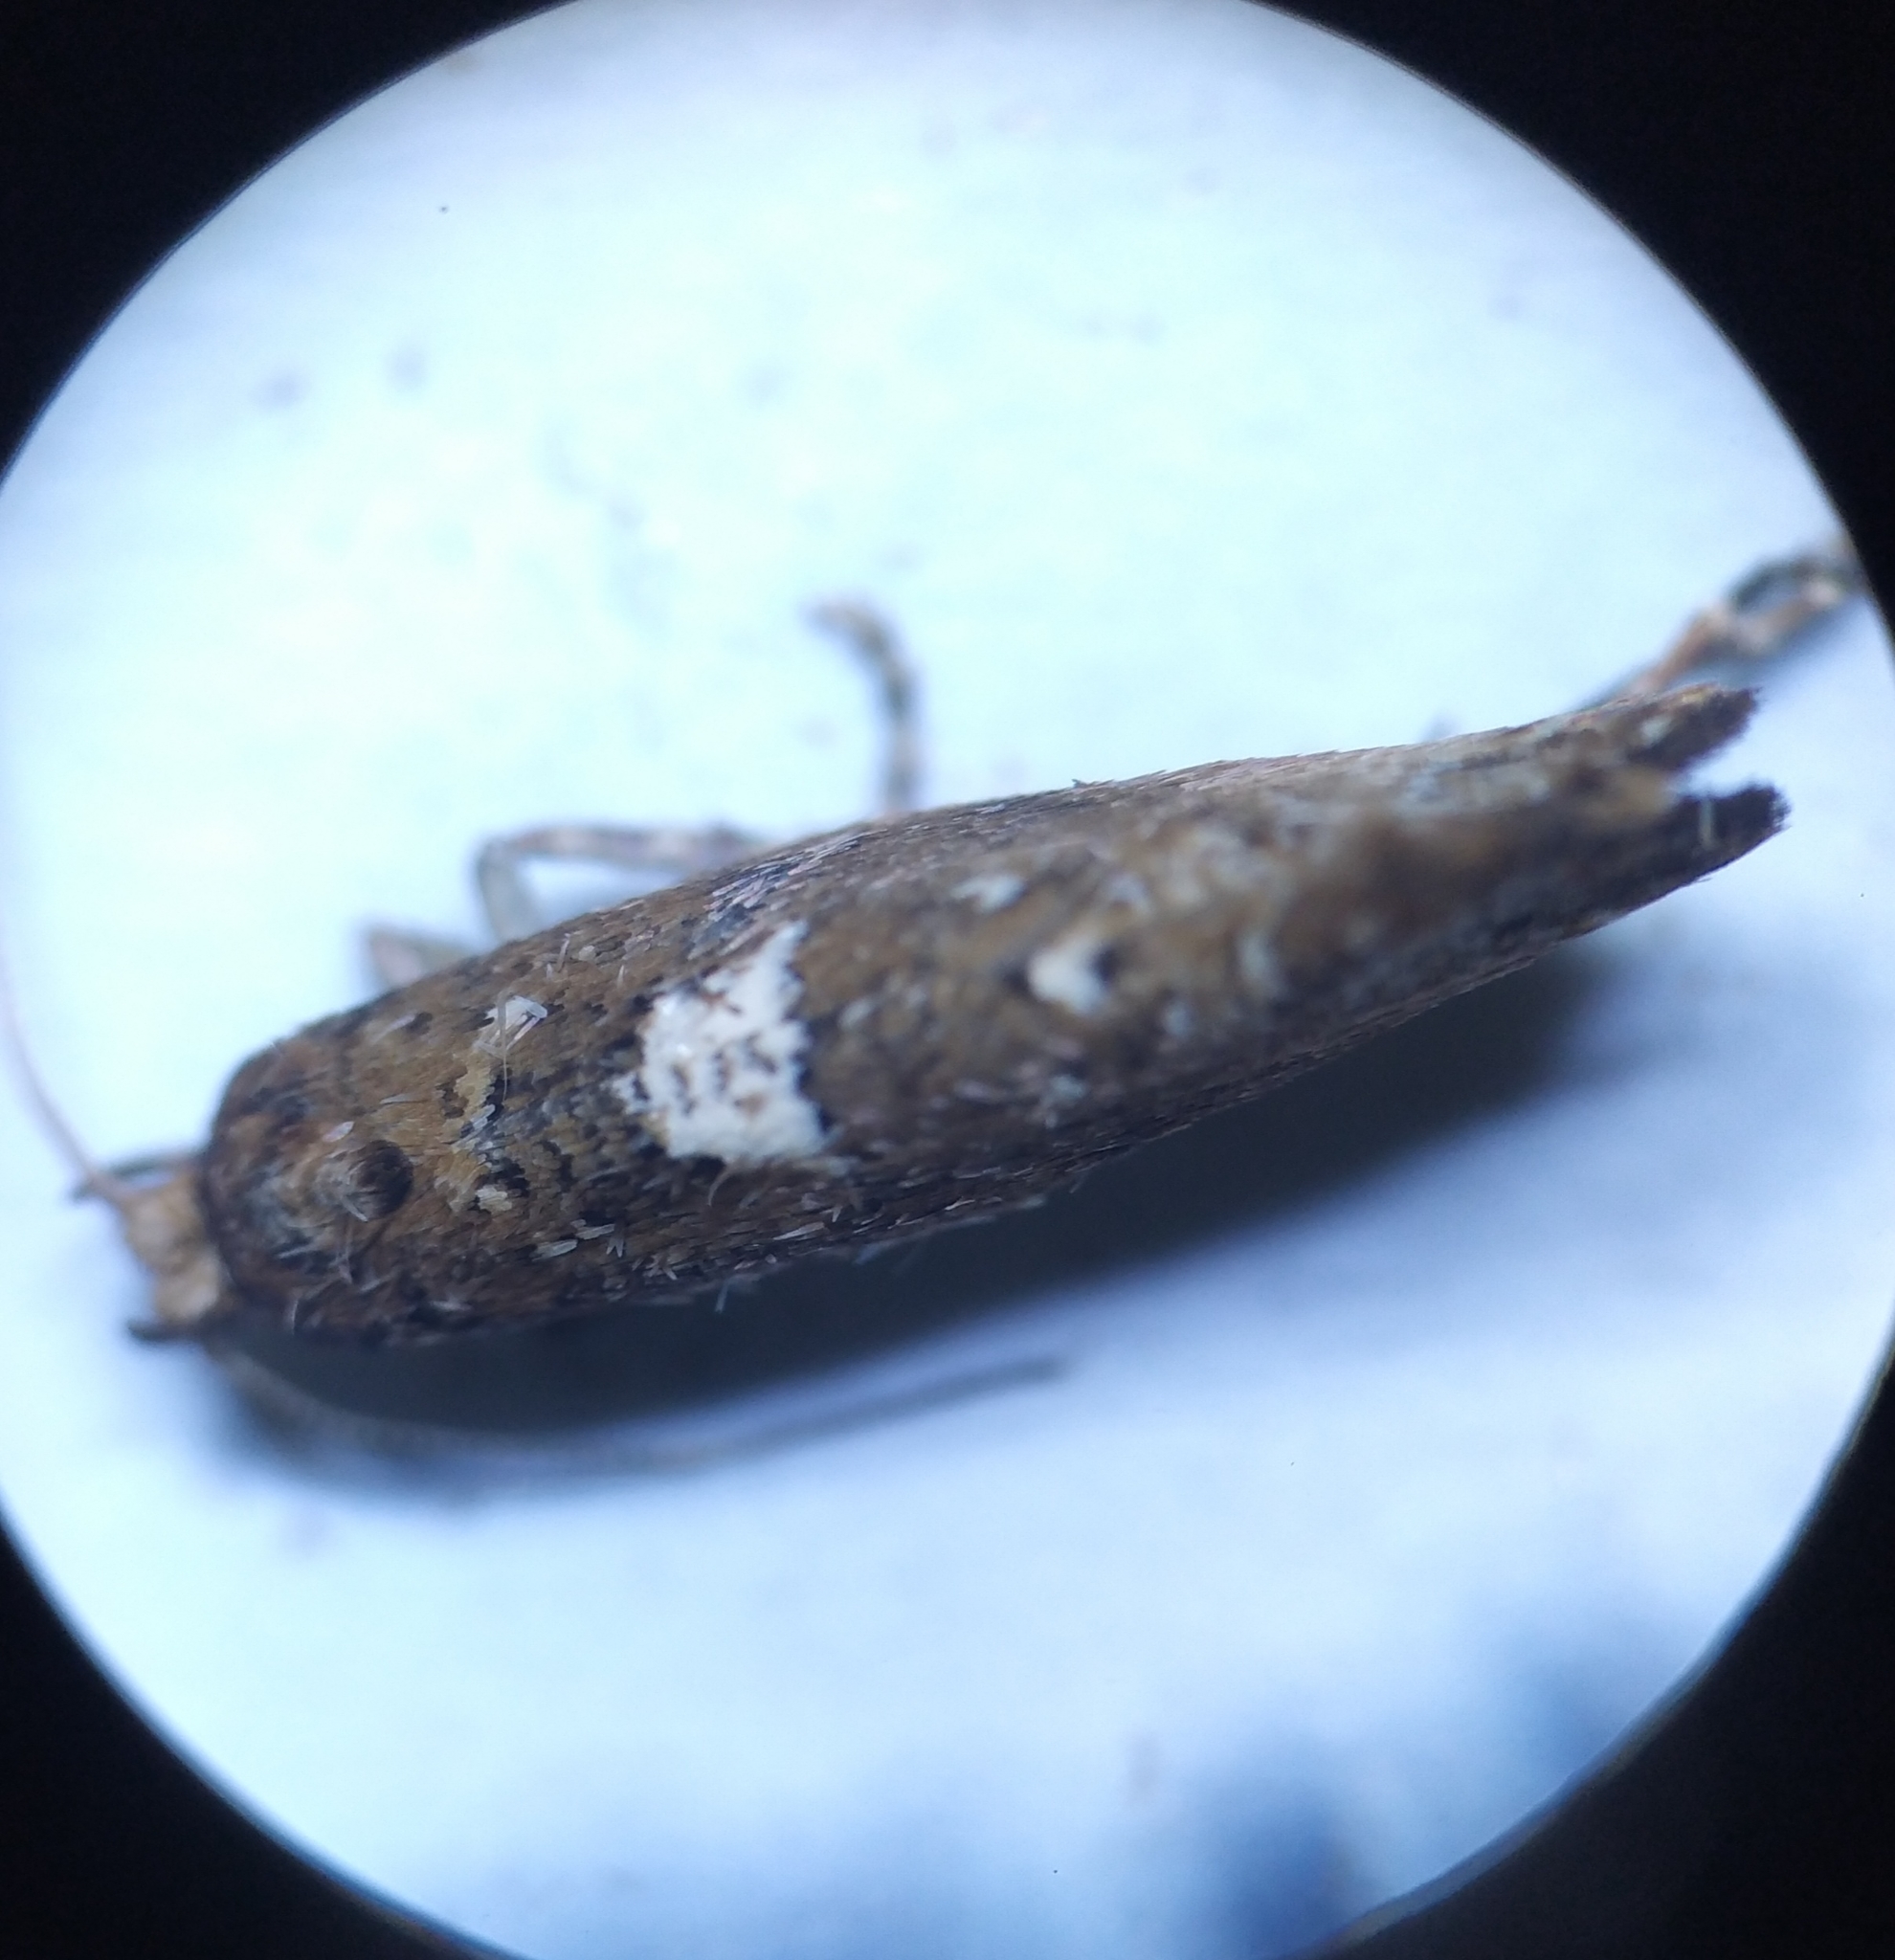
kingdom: Animalia
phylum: Arthropoda
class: Insecta
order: Lepidoptera
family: Glyphipterigidae
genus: Acrolepia
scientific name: Acrolepia assectella
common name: Onion leaf miner
